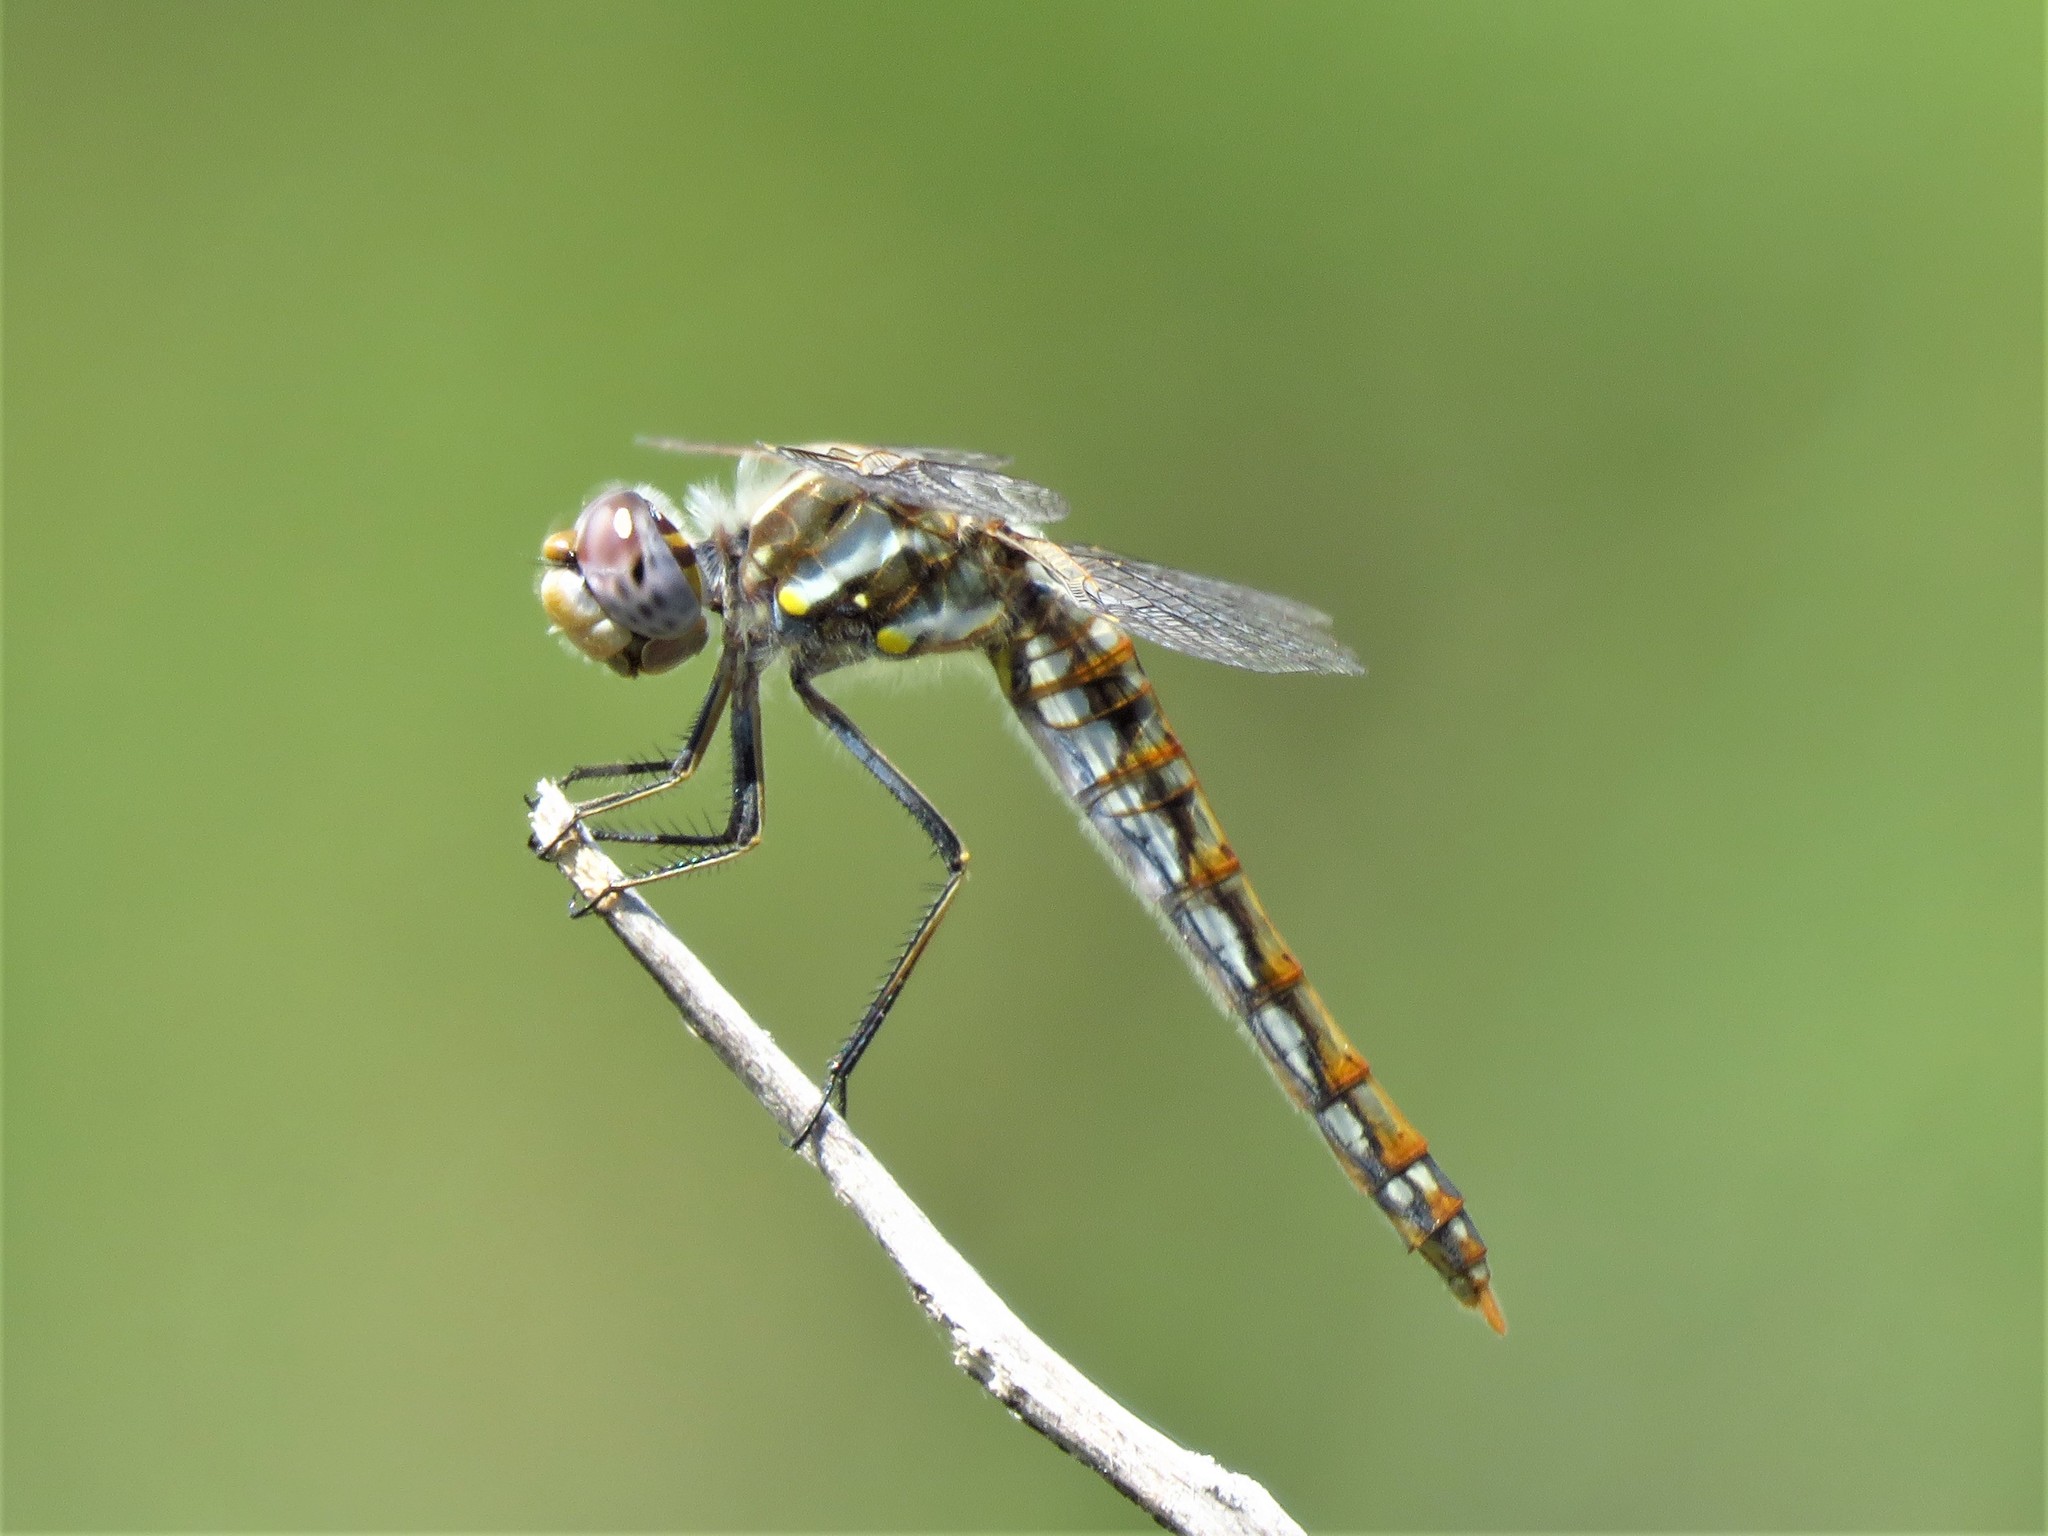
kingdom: Animalia
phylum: Arthropoda
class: Insecta
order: Odonata
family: Libellulidae
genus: Sympetrum
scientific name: Sympetrum corruptum
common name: Variegated meadowhawk
